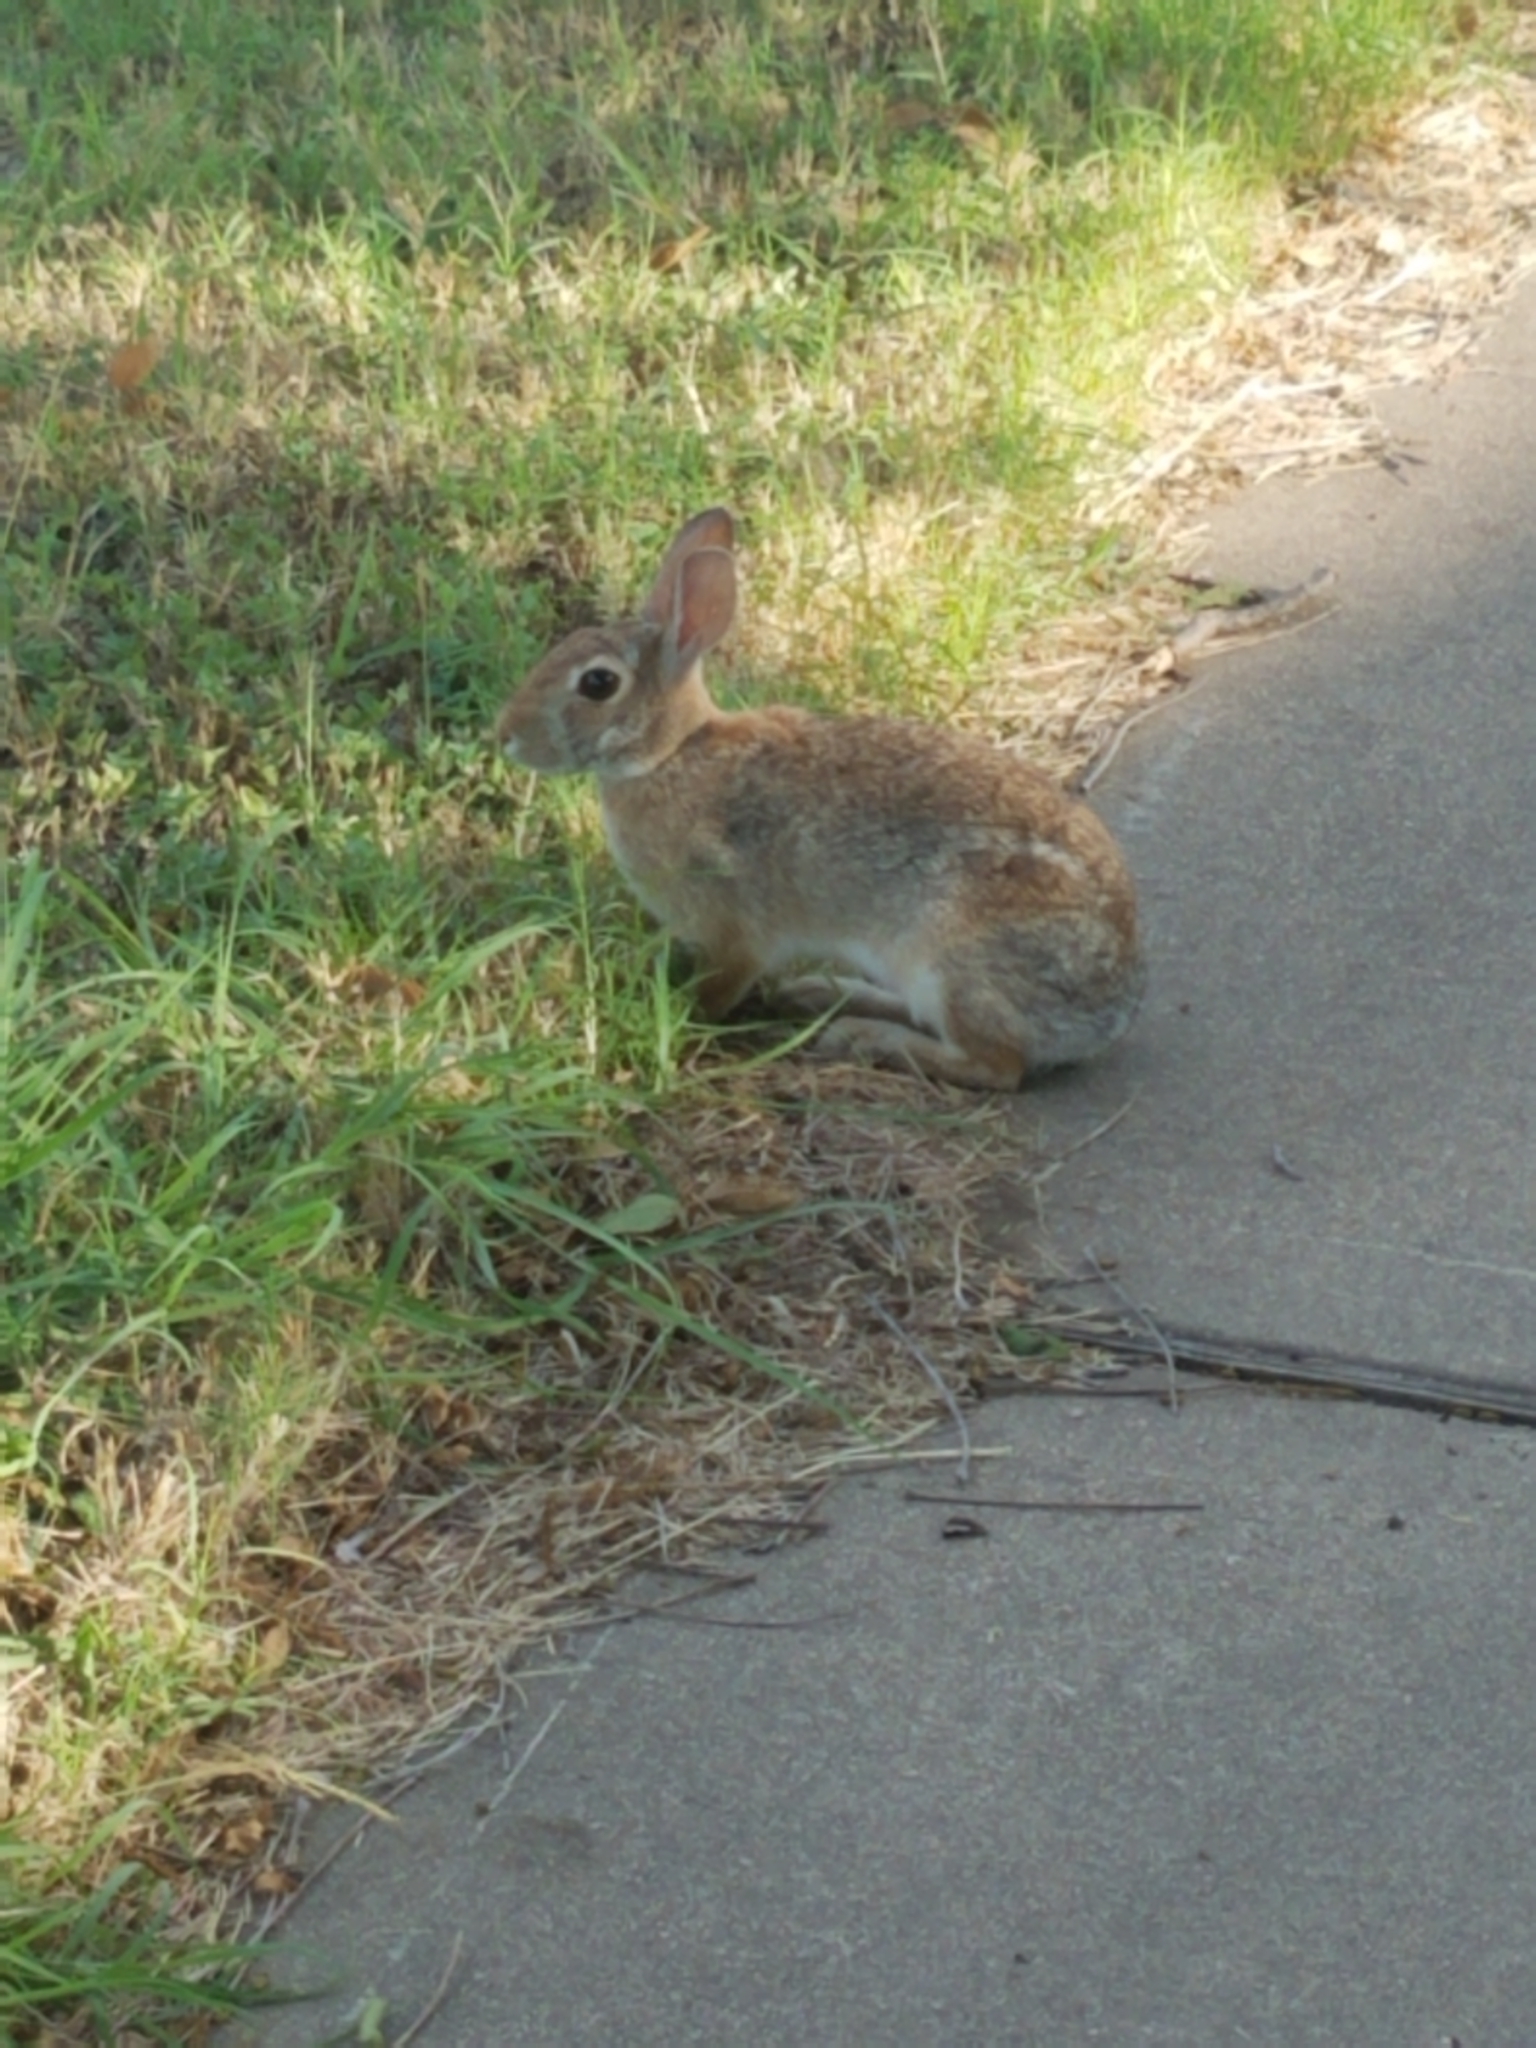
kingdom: Animalia
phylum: Chordata
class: Mammalia
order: Lagomorpha
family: Leporidae
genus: Sylvilagus
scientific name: Sylvilagus floridanus
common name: Eastern cottontail
